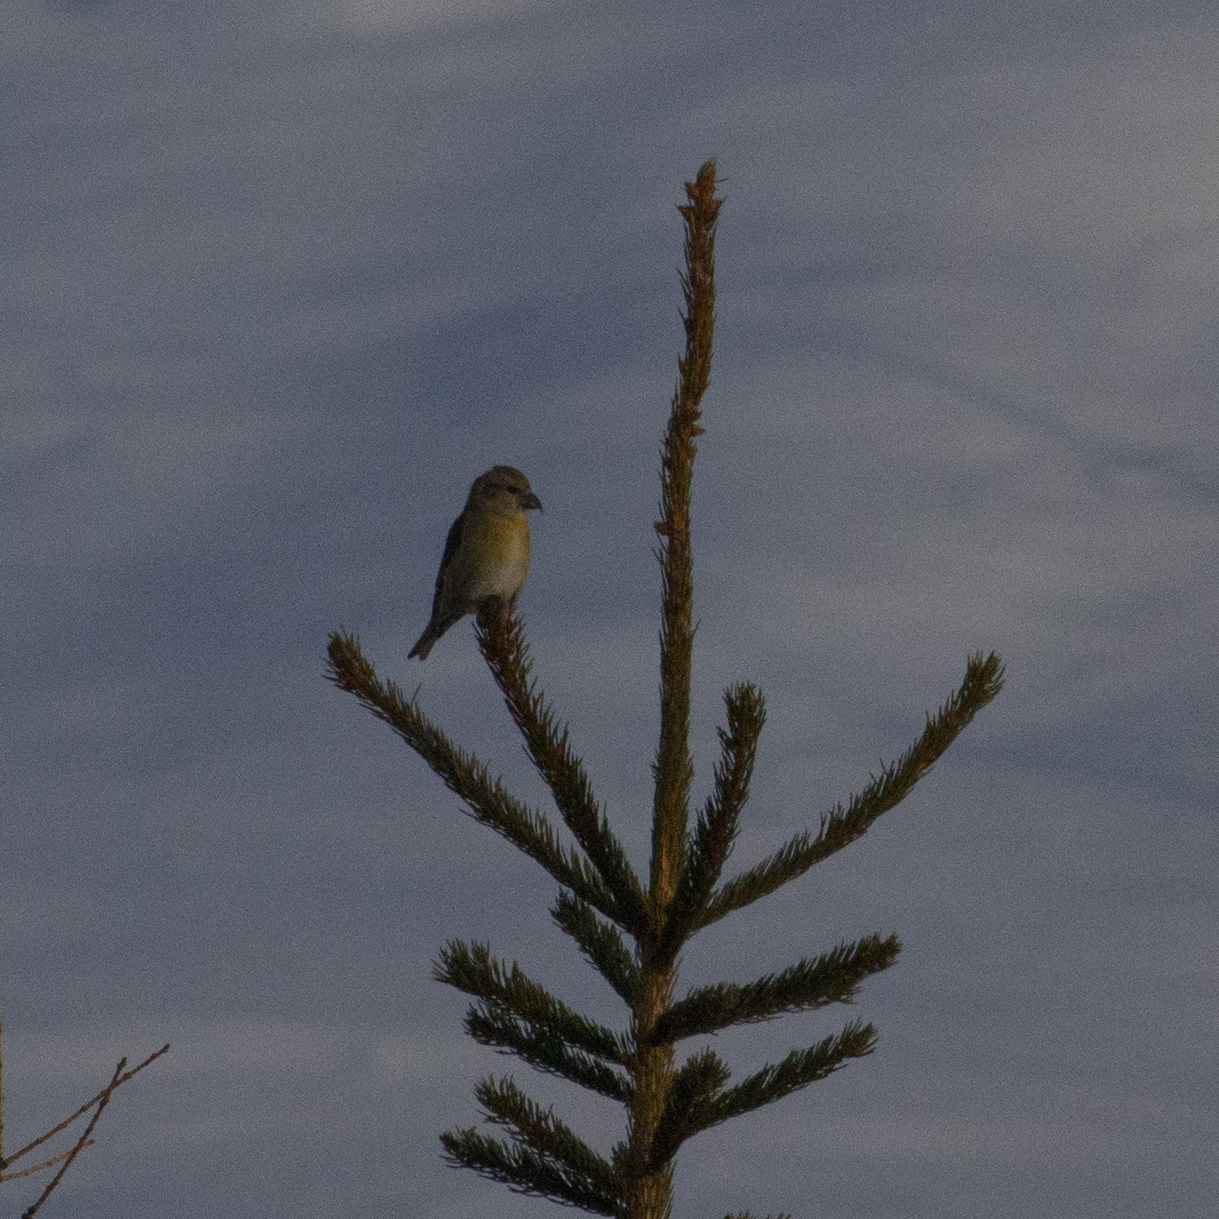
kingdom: Animalia
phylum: Chordata
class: Aves
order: Passeriformes
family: Fringillidae
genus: Loxia
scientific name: Loxia curvirostra
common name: Red crossbill
